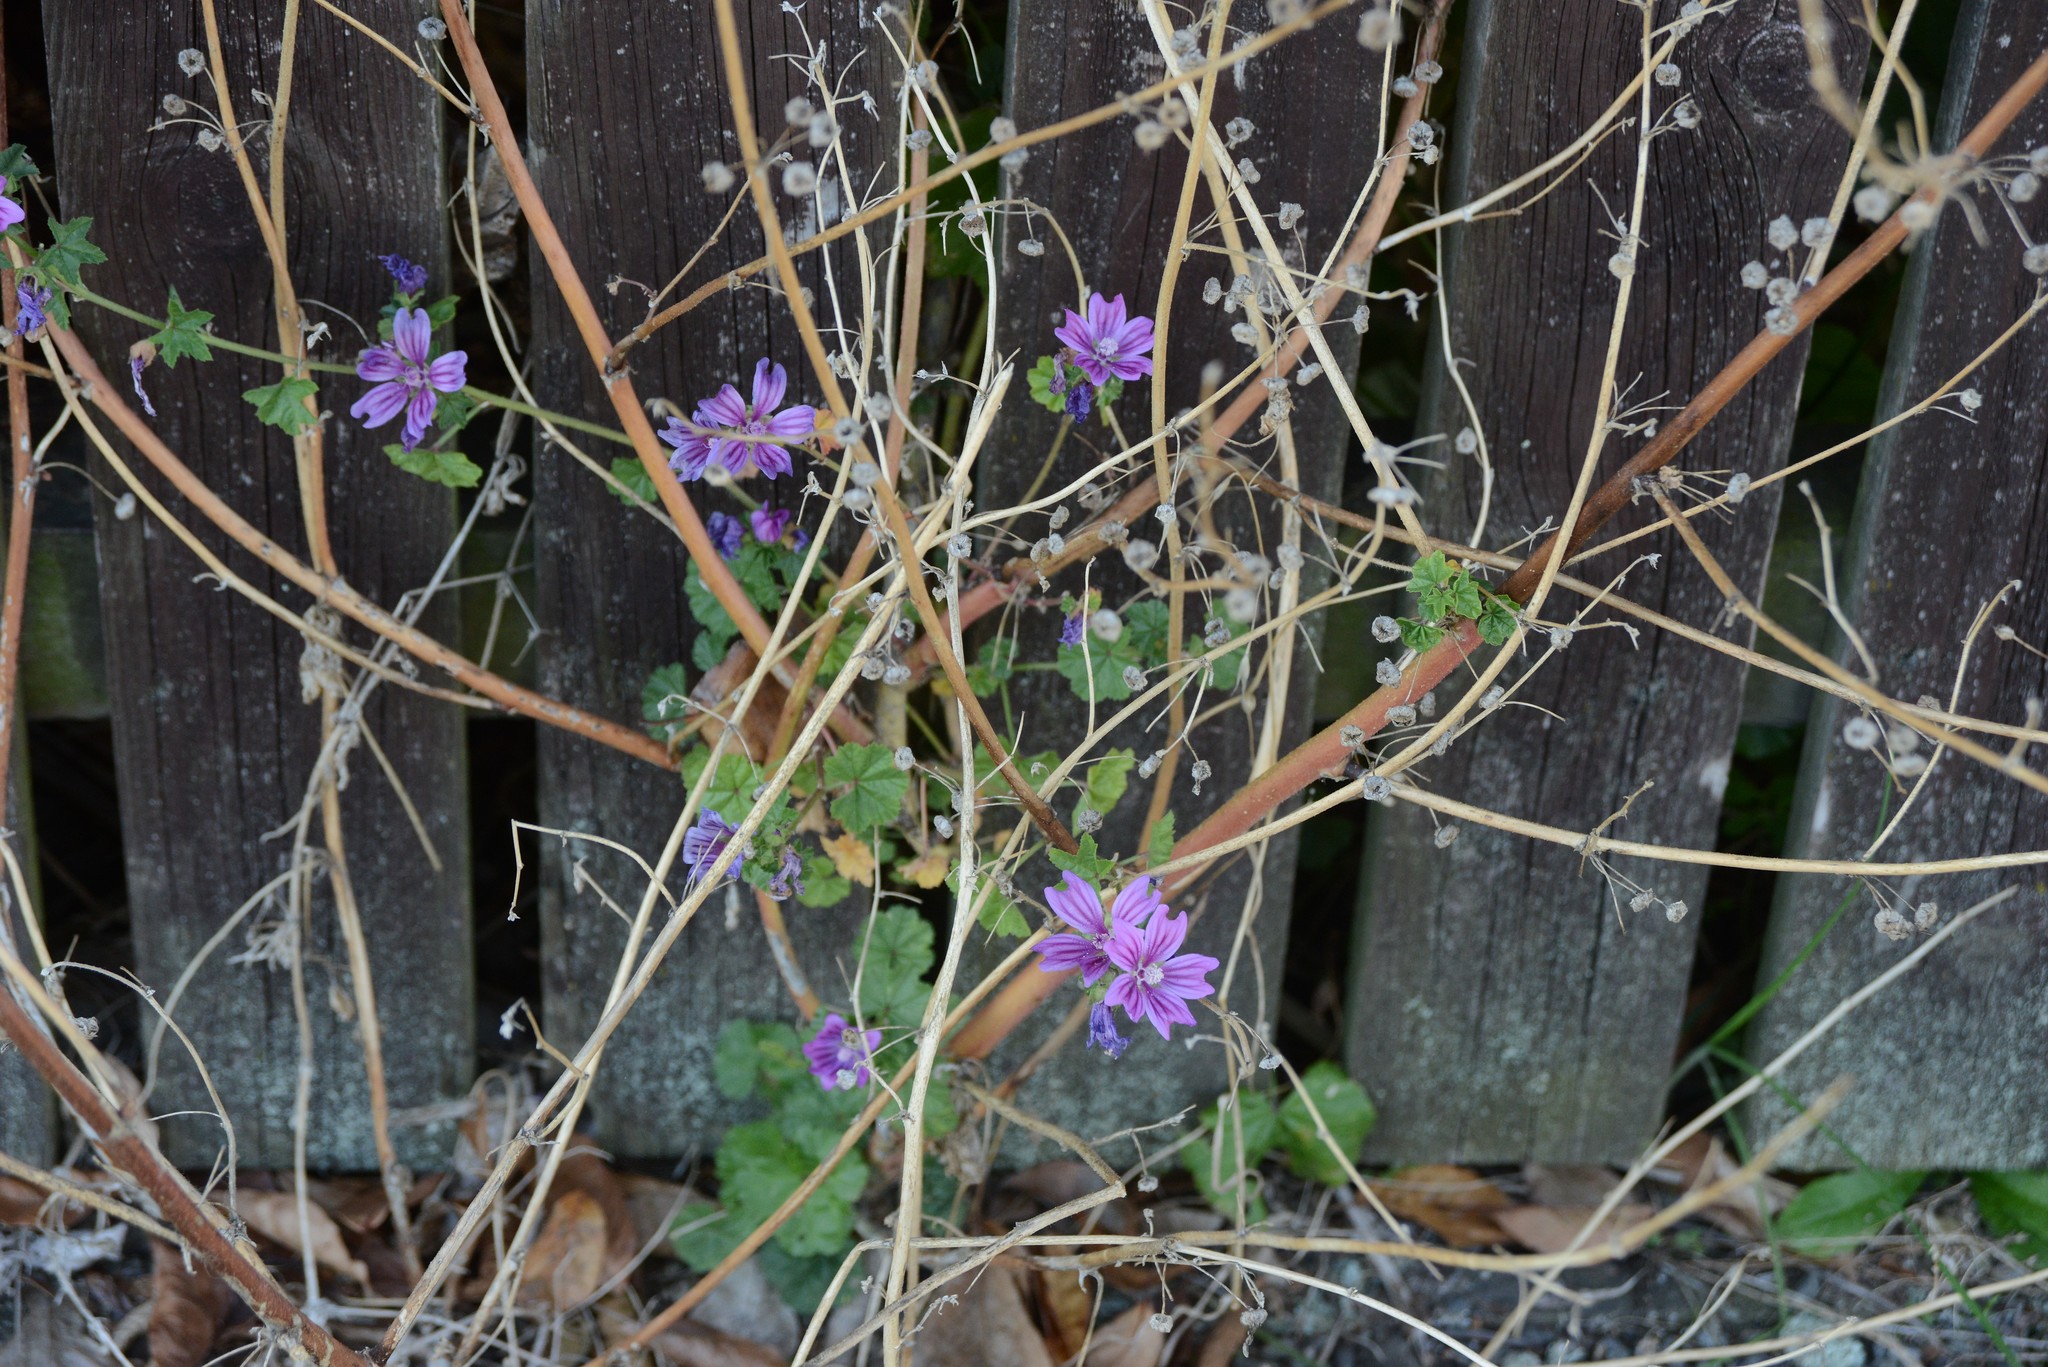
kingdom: Plantae
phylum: Tracheophyta
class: Magnoliopsida
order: Malvales
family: Malvaceae
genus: Malva
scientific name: Malva sylvestris
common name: Common mallow
